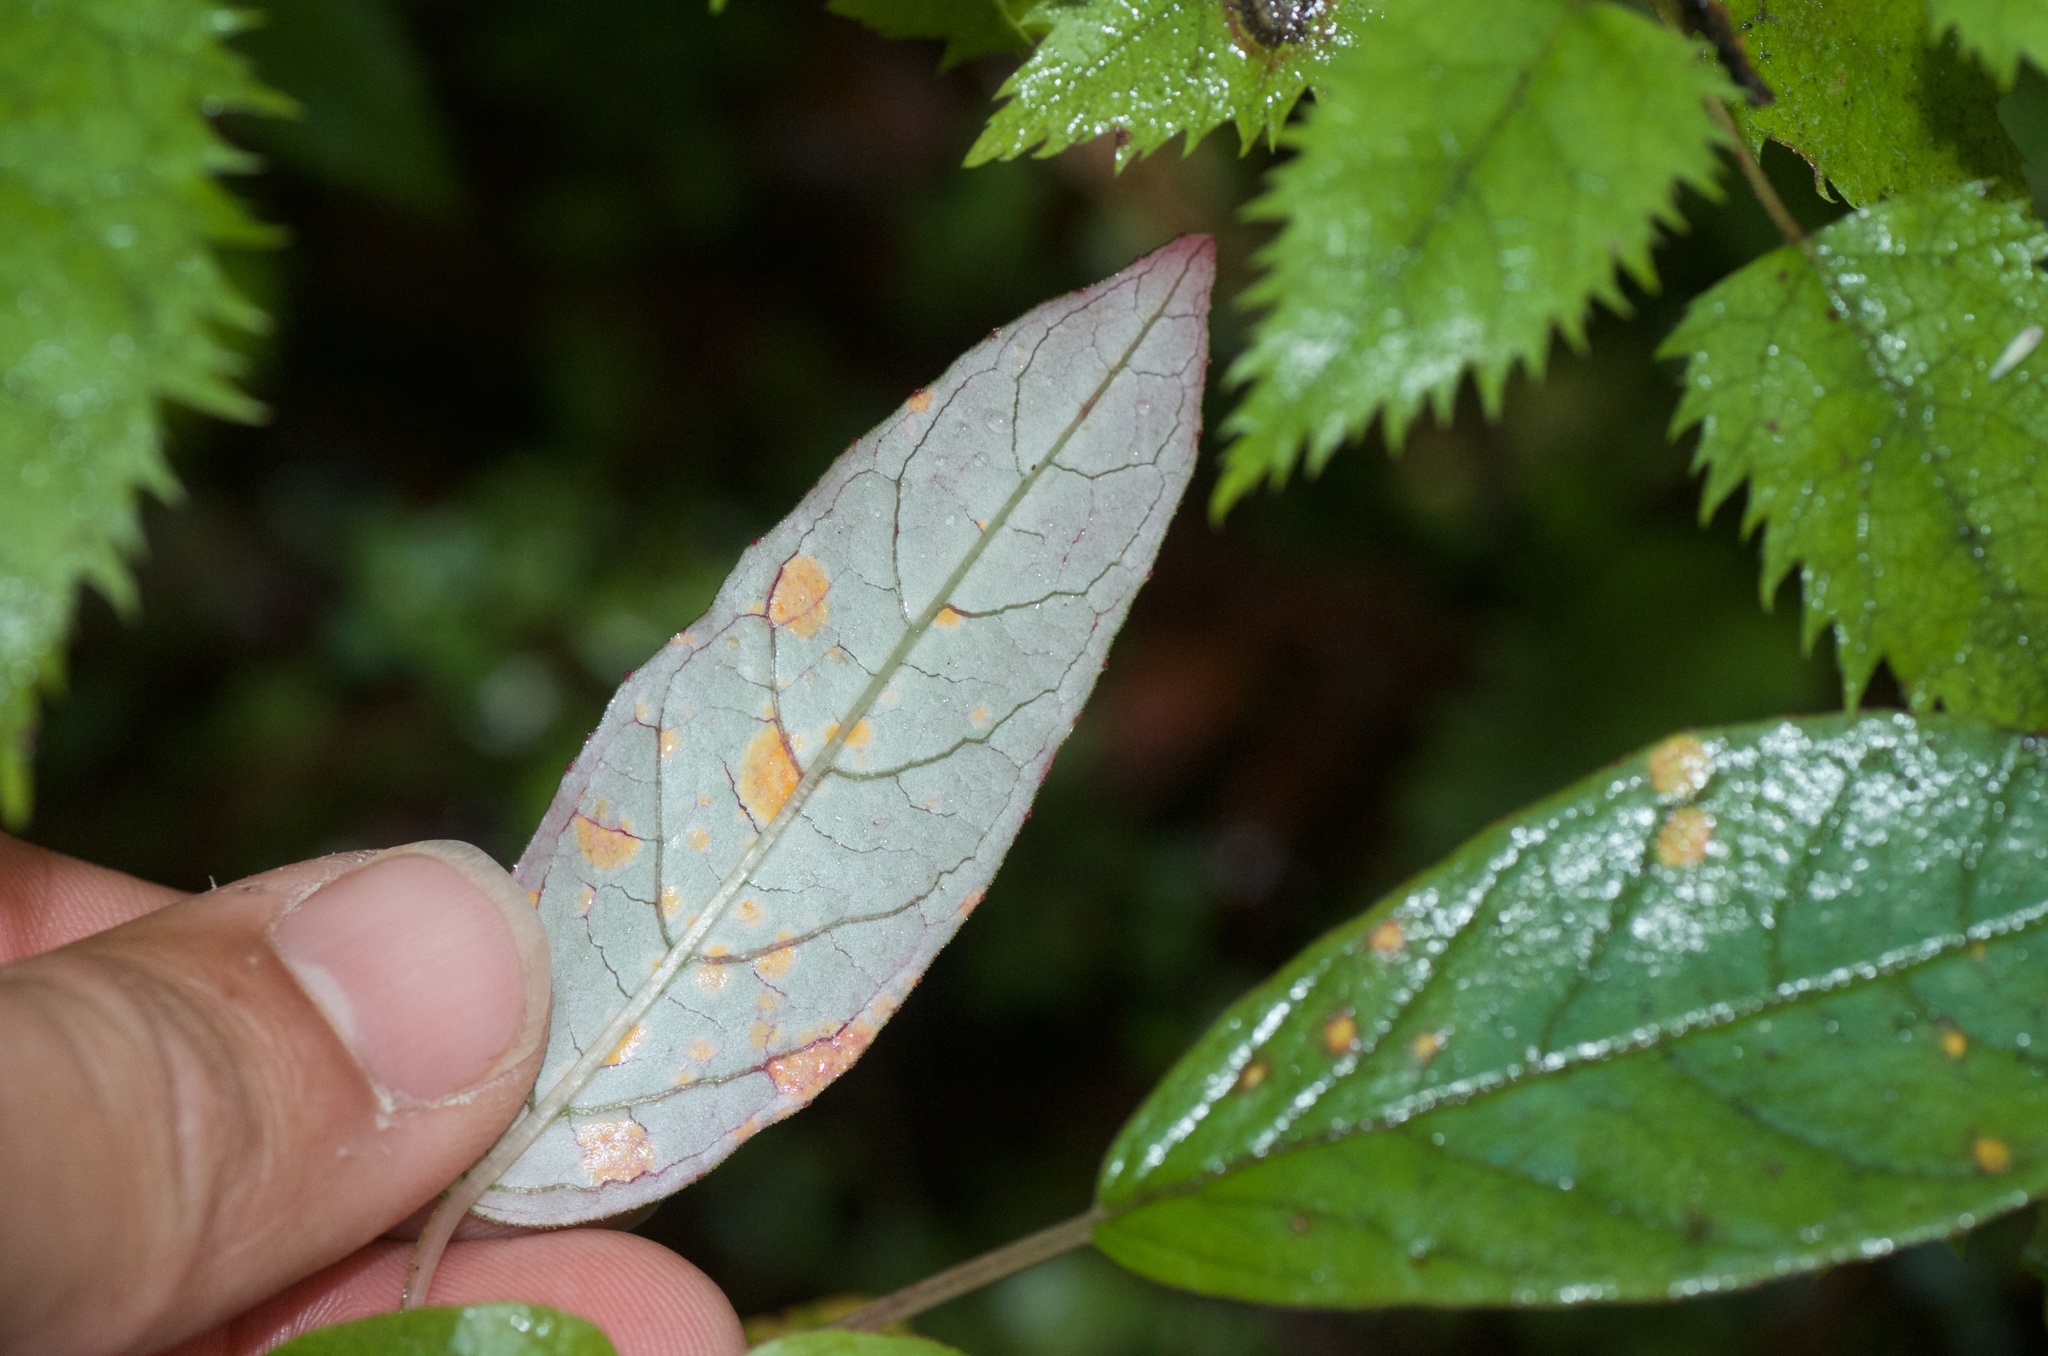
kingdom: Fungi
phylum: Basidiomycota
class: Pucciniomycetes
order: Pucciniales
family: Mikronegeriaceae
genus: Mikronegeria
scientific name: Mikronegeria fuchsiae
